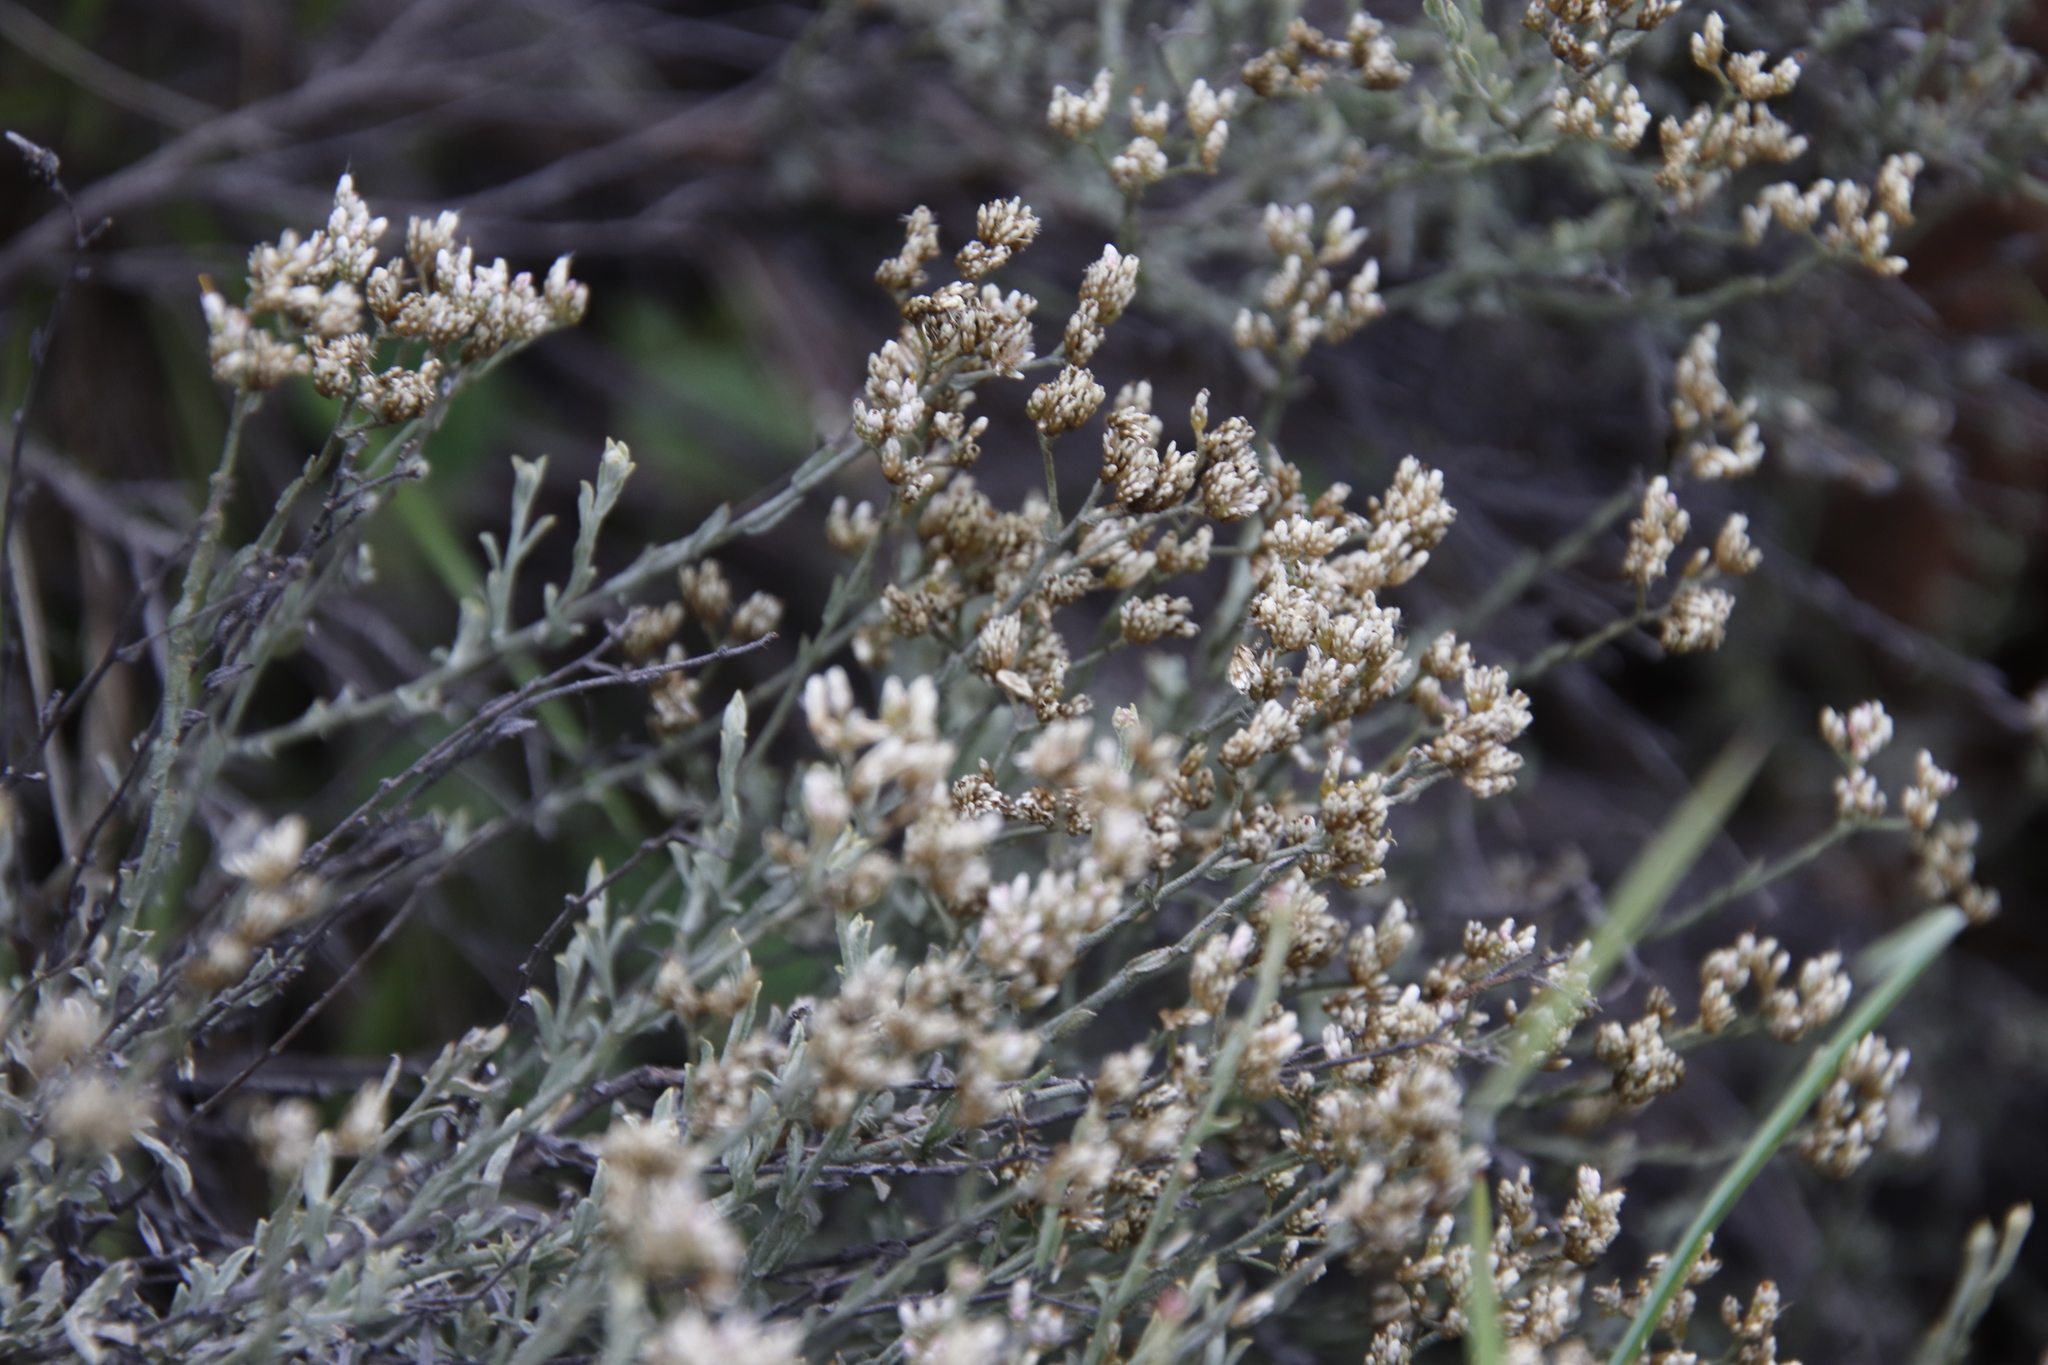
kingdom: Plantae
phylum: Tracheophyta
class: Magnoliopsida
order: Asterales
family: Asteraceae
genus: Helichrysum
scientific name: Helichrysum zeyheri
